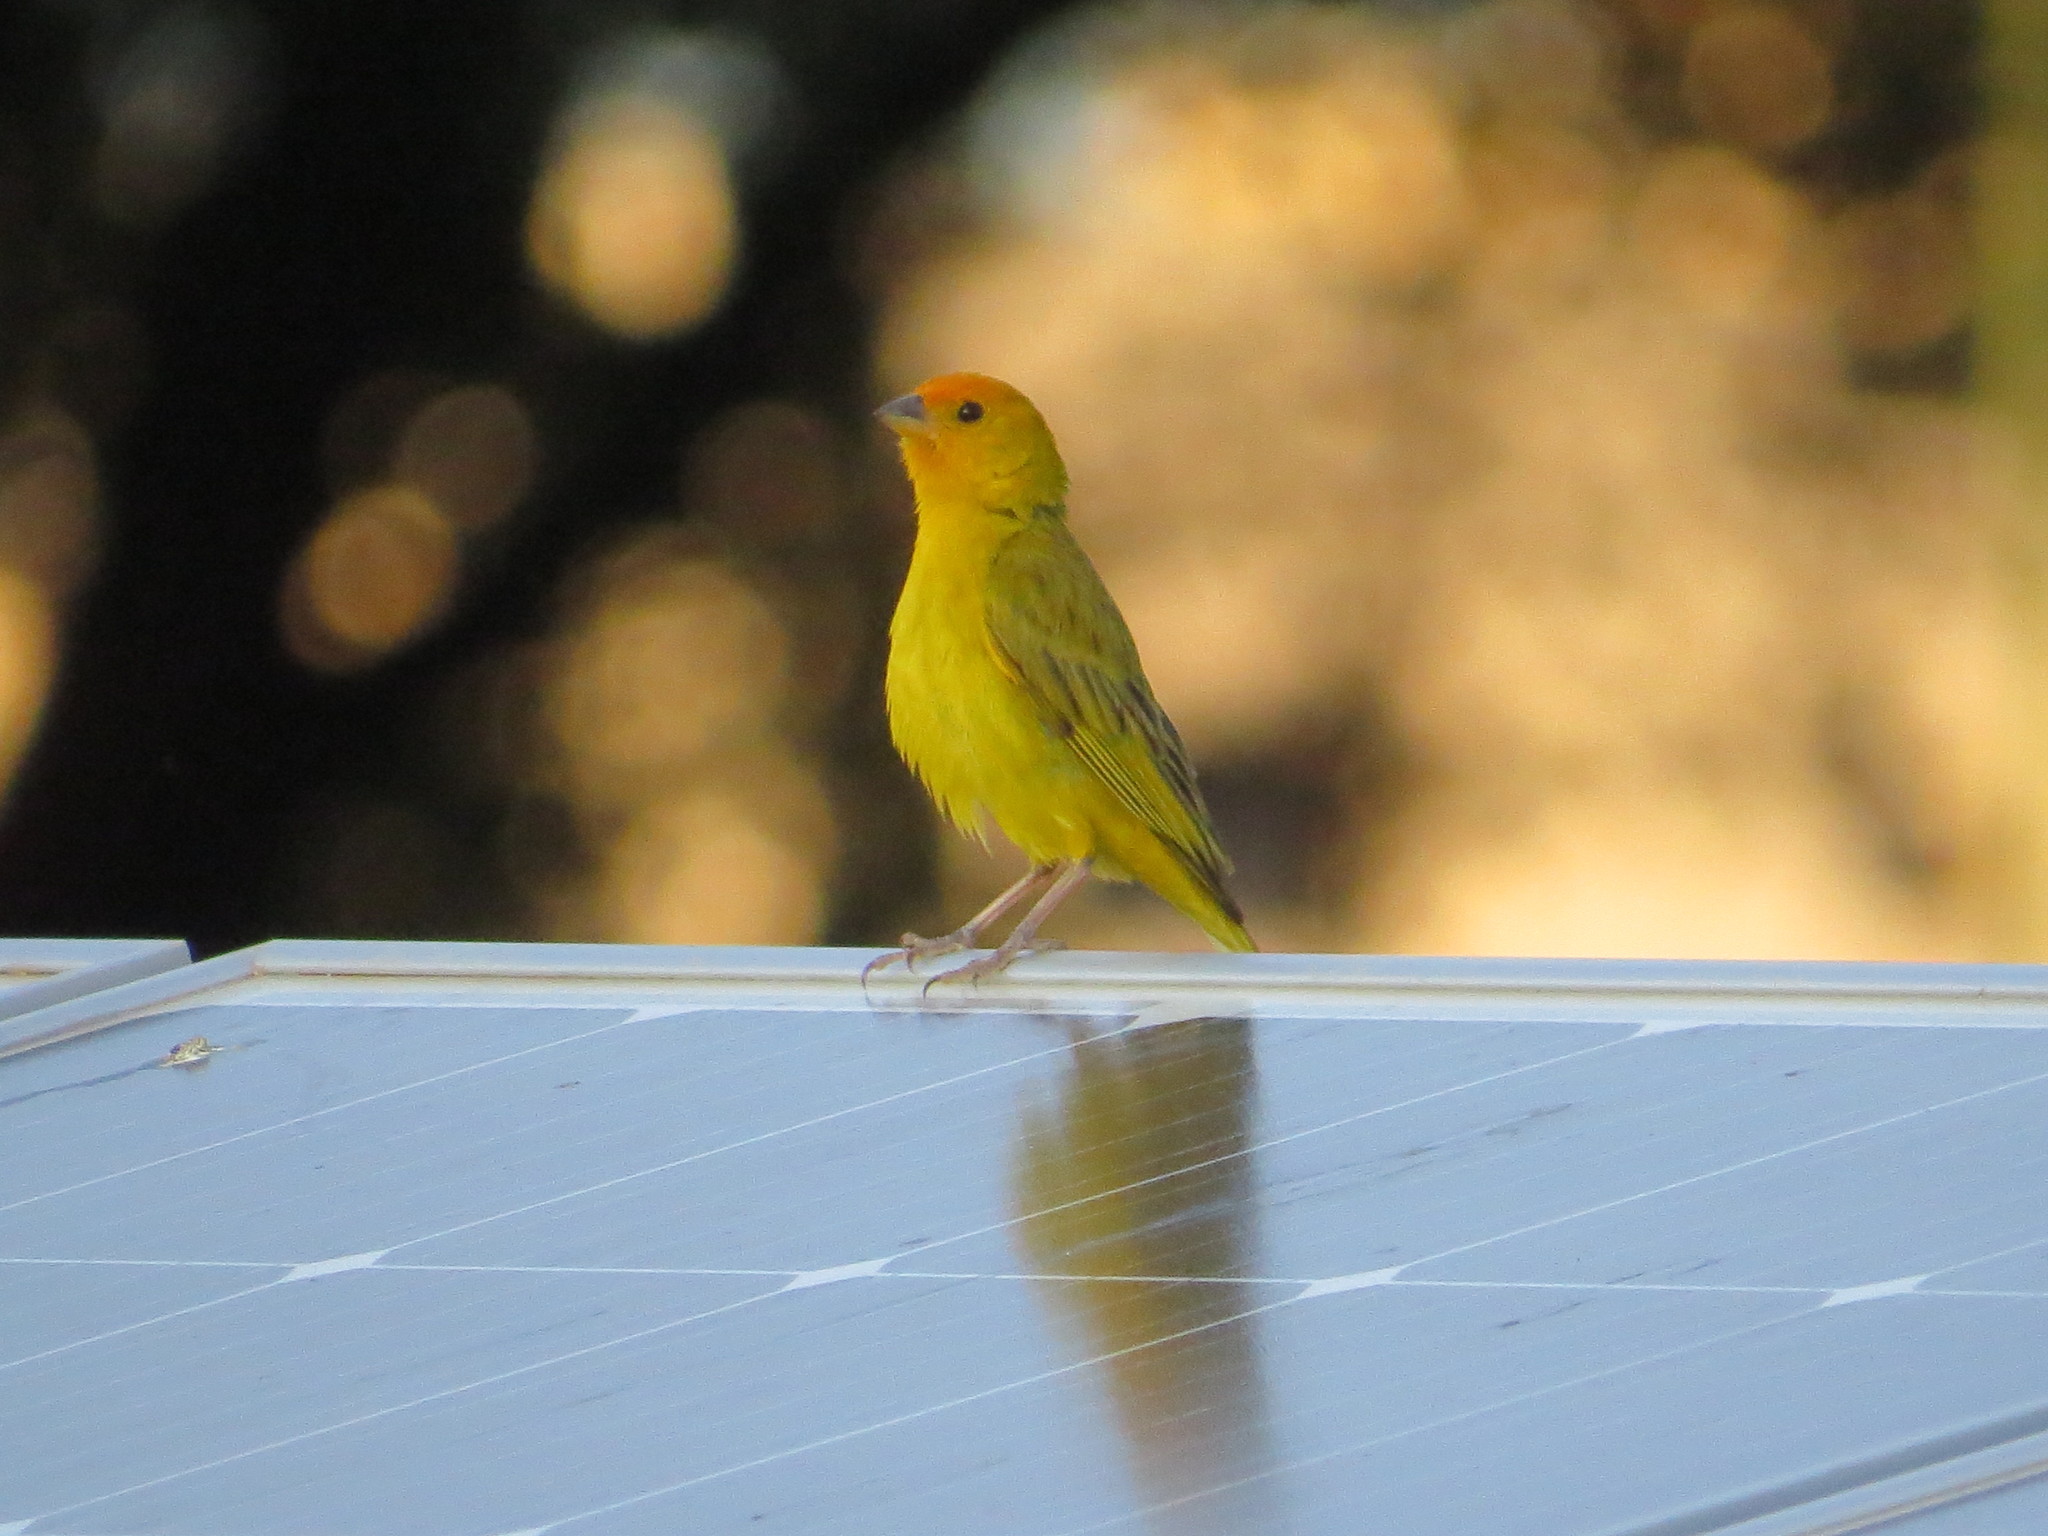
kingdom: Animalia
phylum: Chordata
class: Aves
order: Passeriformes
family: Thraupidae
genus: Sicalis
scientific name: Sicalis flaveola
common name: Saffron finch
